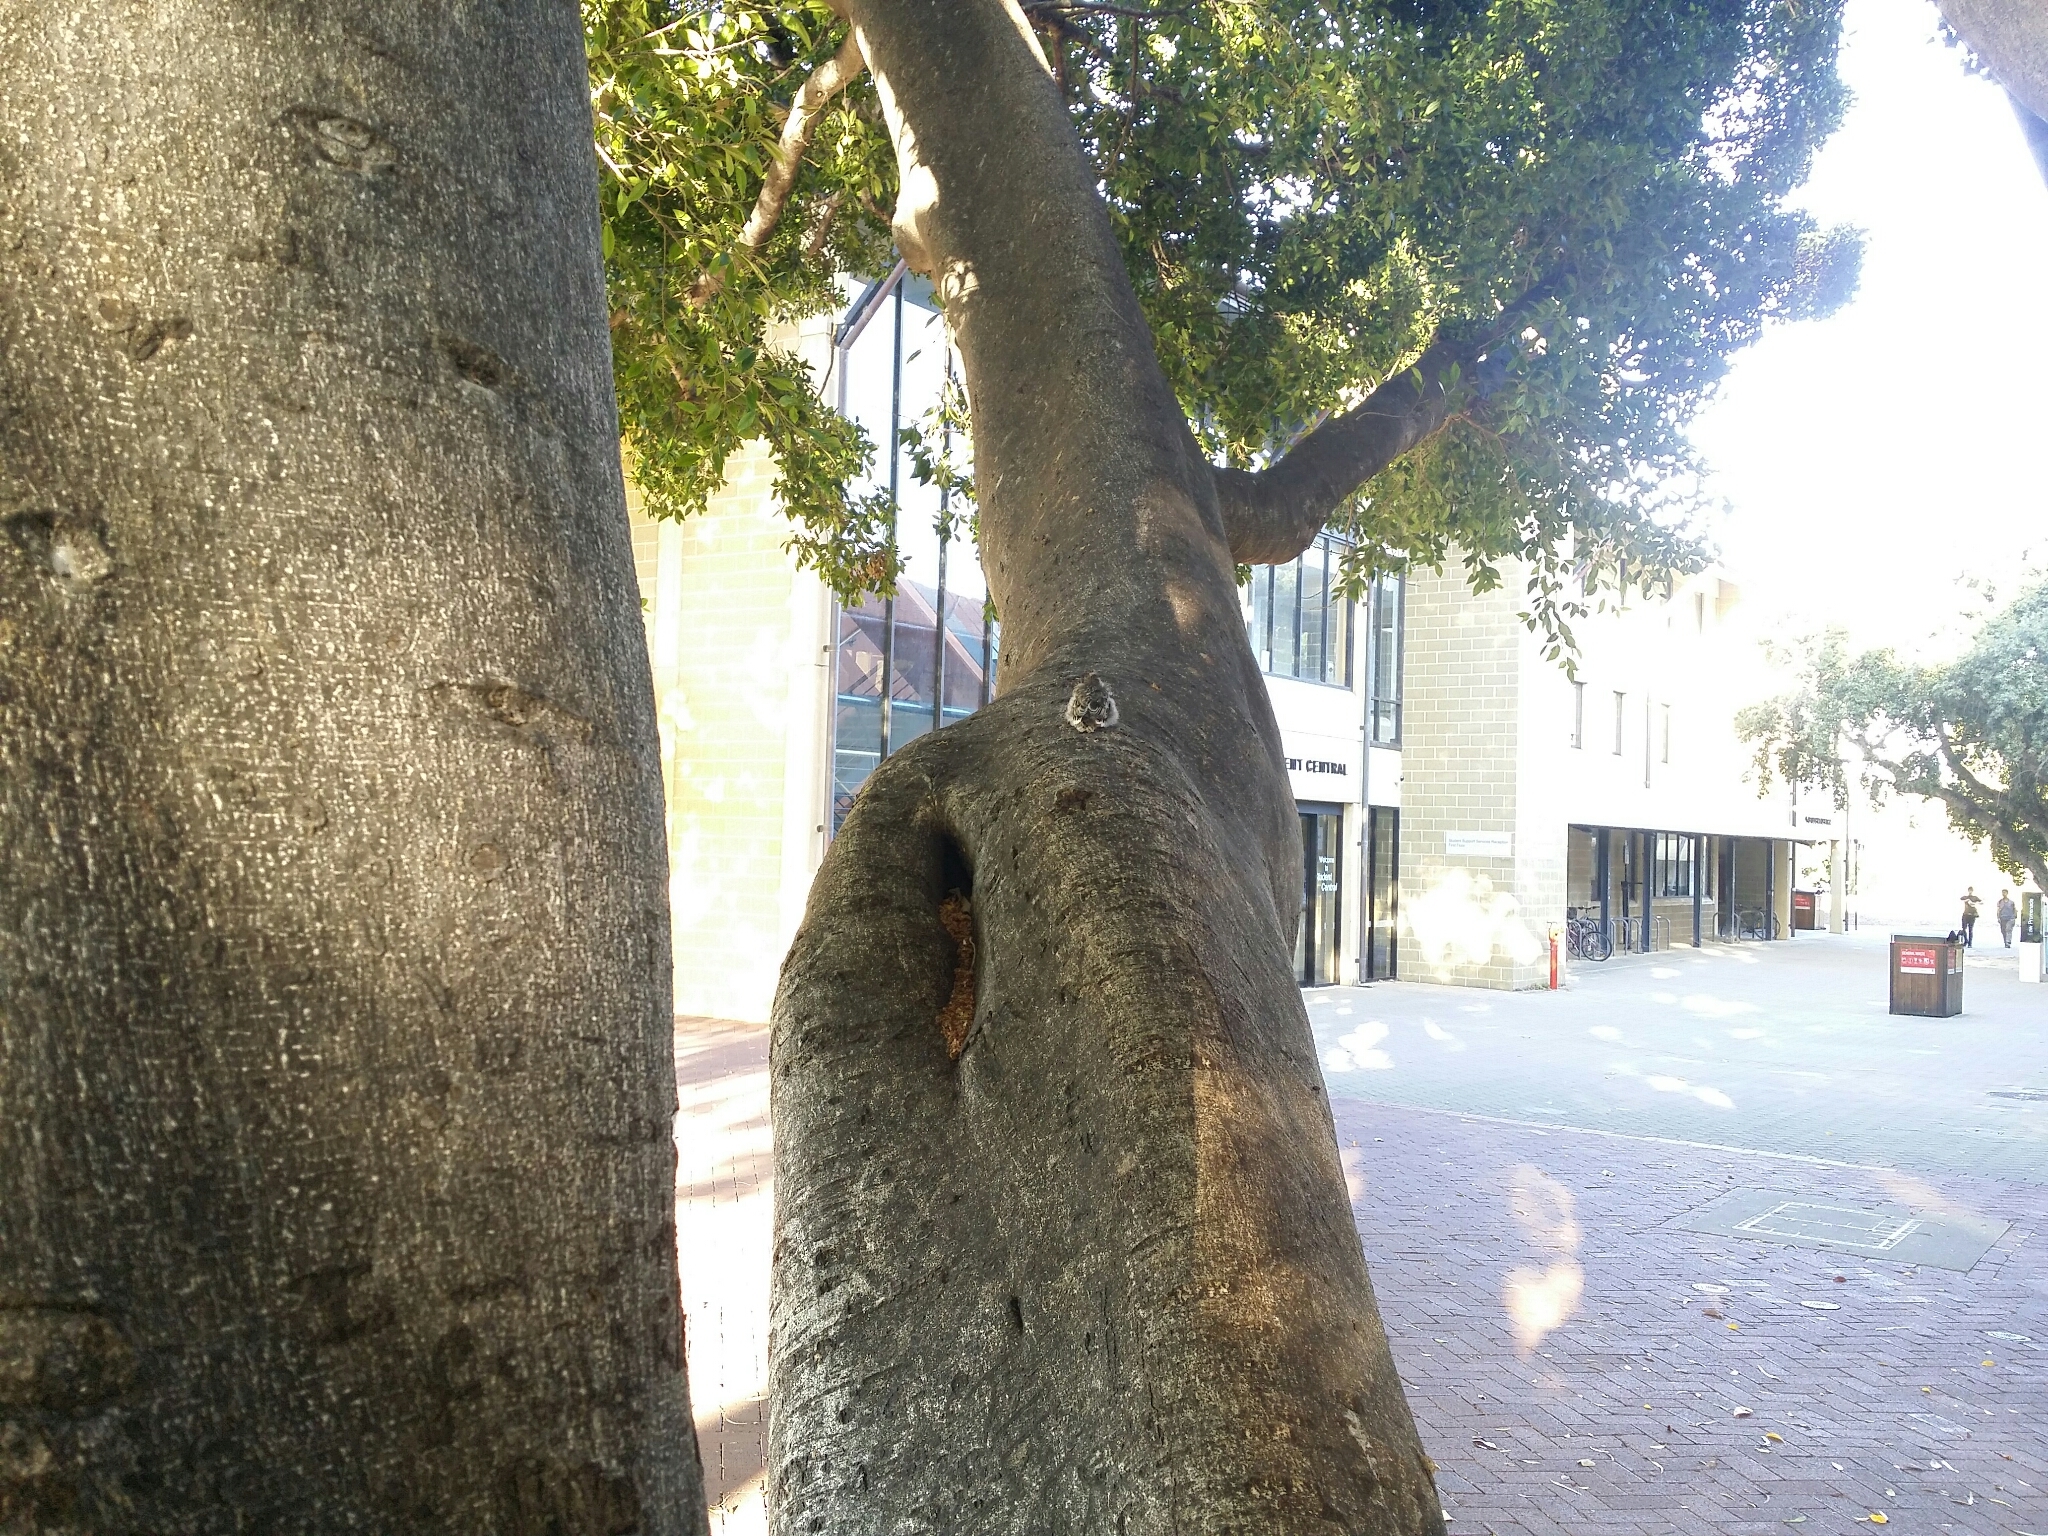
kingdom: Animalia
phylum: Chordata
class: Aves
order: Passeriformes
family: Meliphagidae
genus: Anthochaera
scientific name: Anthochaera carunculata
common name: Red wattlebird
